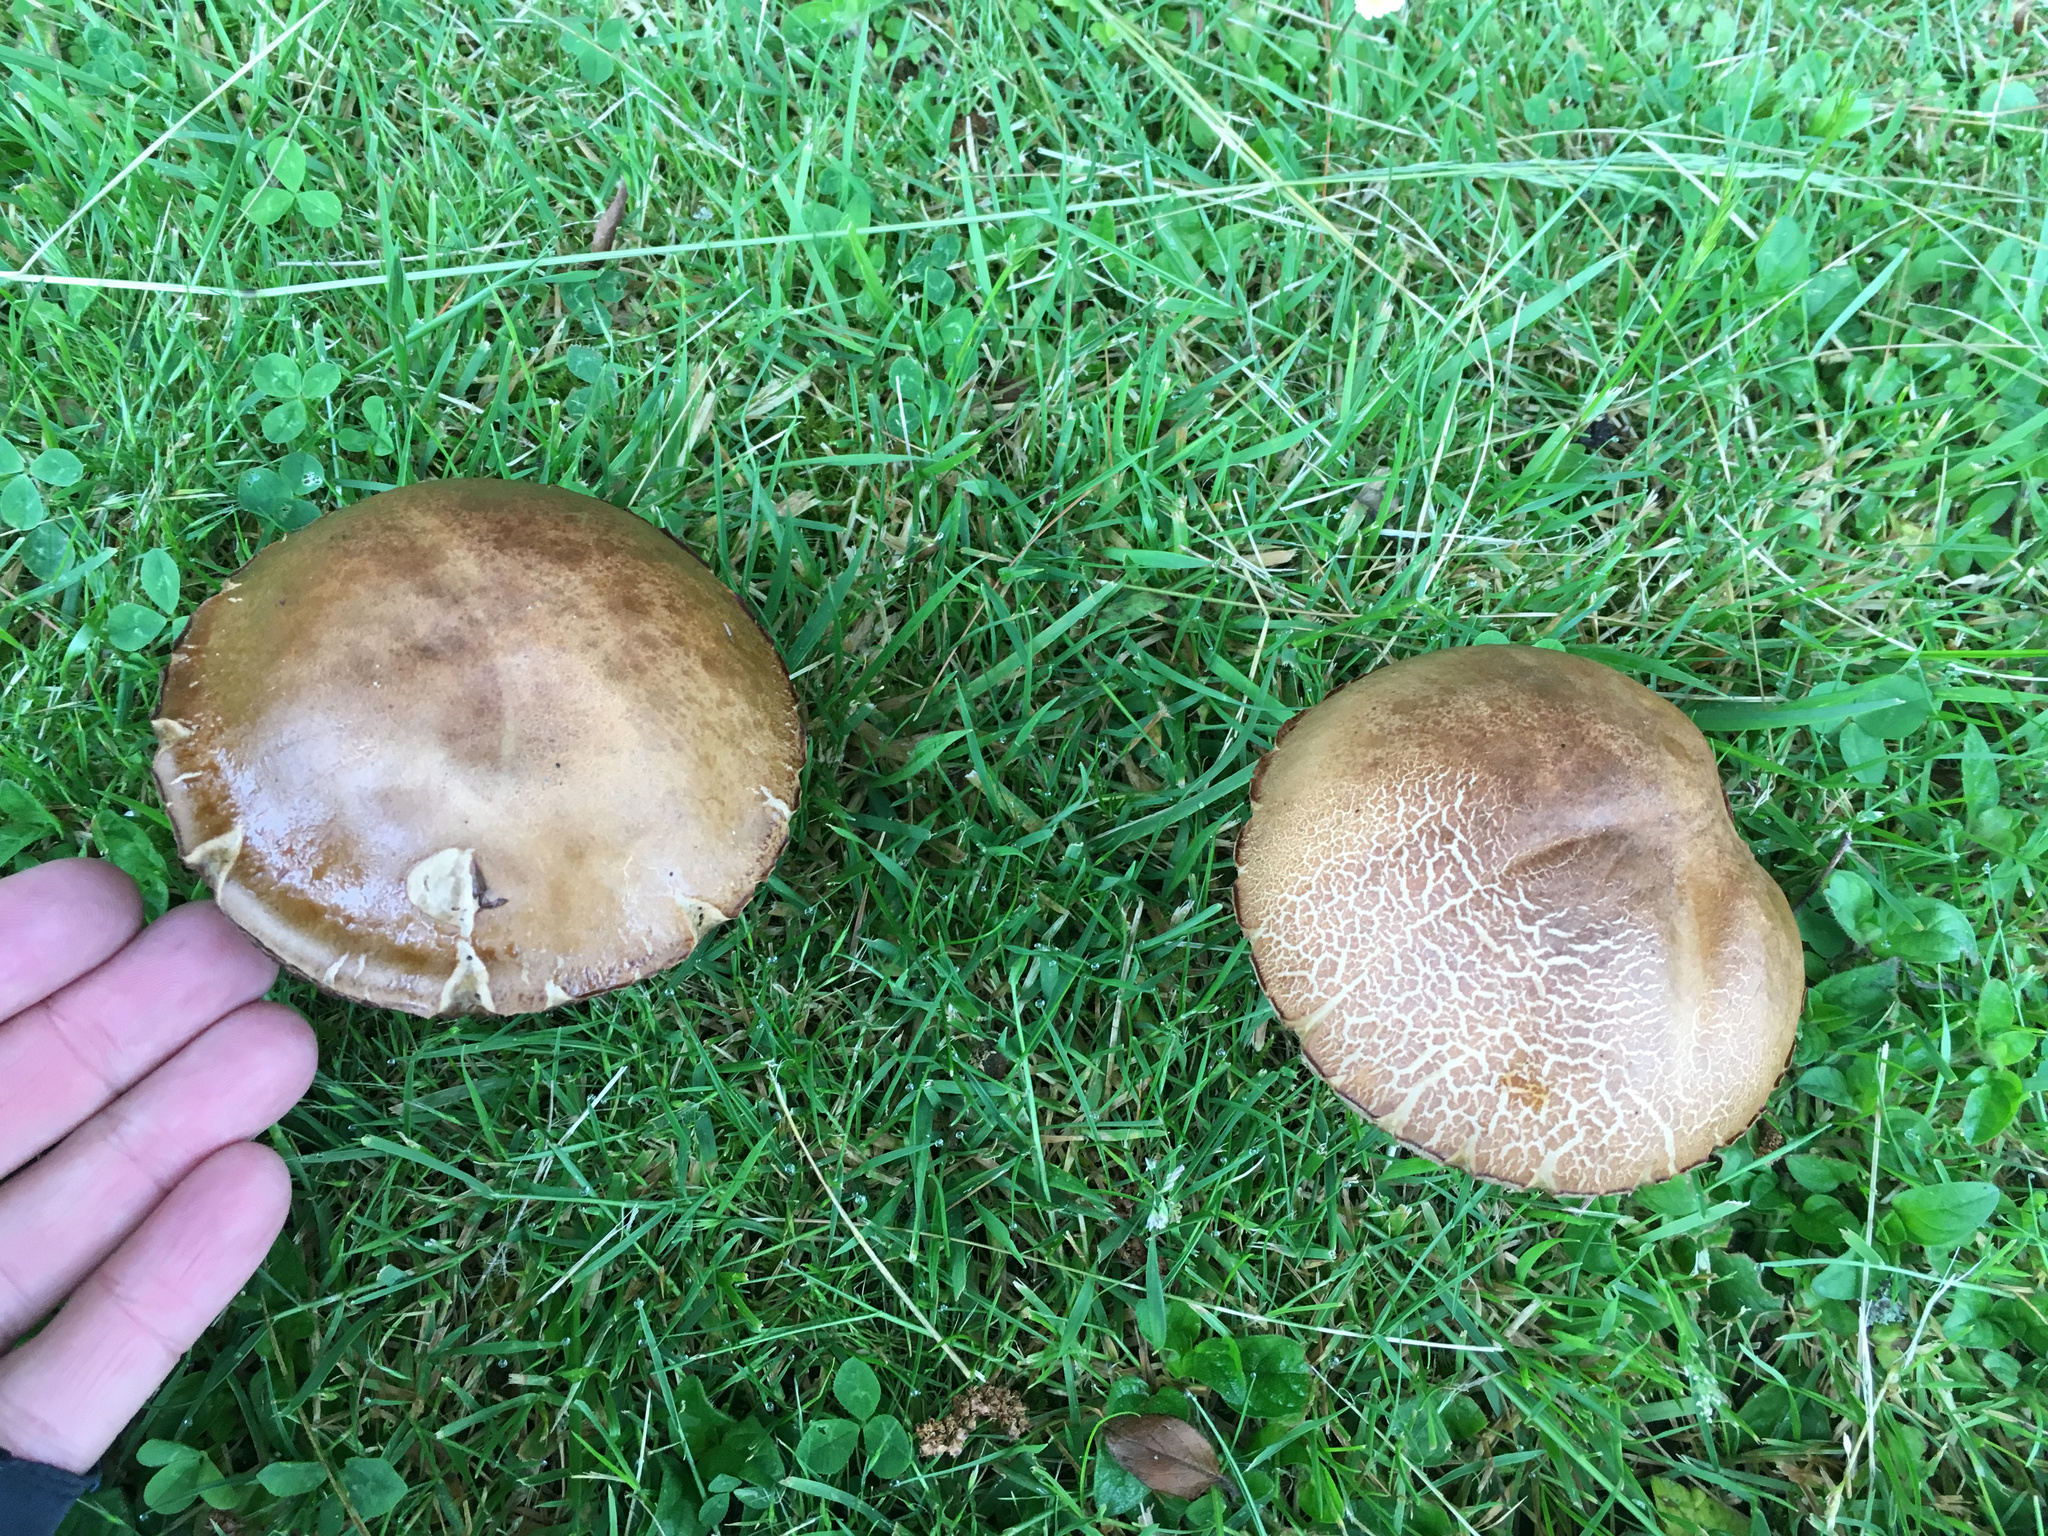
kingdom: Fungi
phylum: Basidiomycota
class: Agaricomycetes
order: Boletales
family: Boletaceae
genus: Leccinum
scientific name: Leccinum scabrum
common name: Blushing bolete
